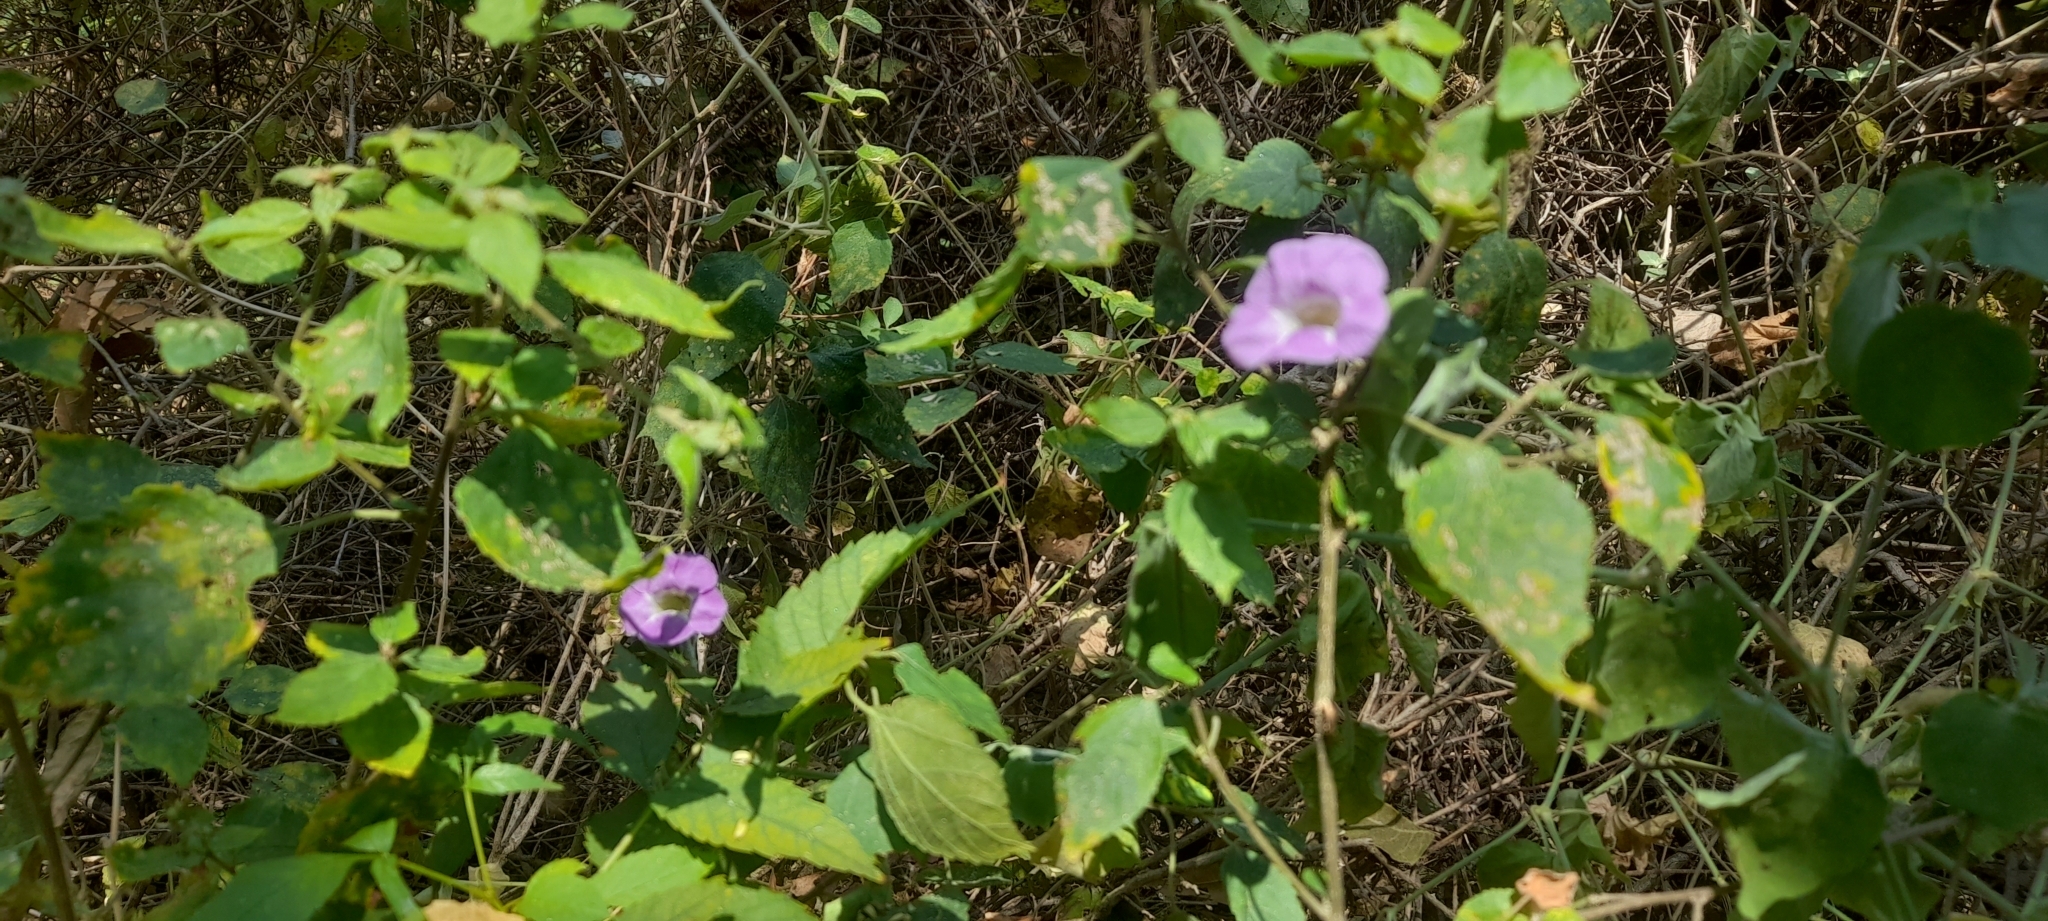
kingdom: Plantae
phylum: Tracheophyta
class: Magnoliopsida
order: Lamiales
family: Acanthaceae
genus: Asystasia
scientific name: Asystasia gangetica
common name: Chinese violet
